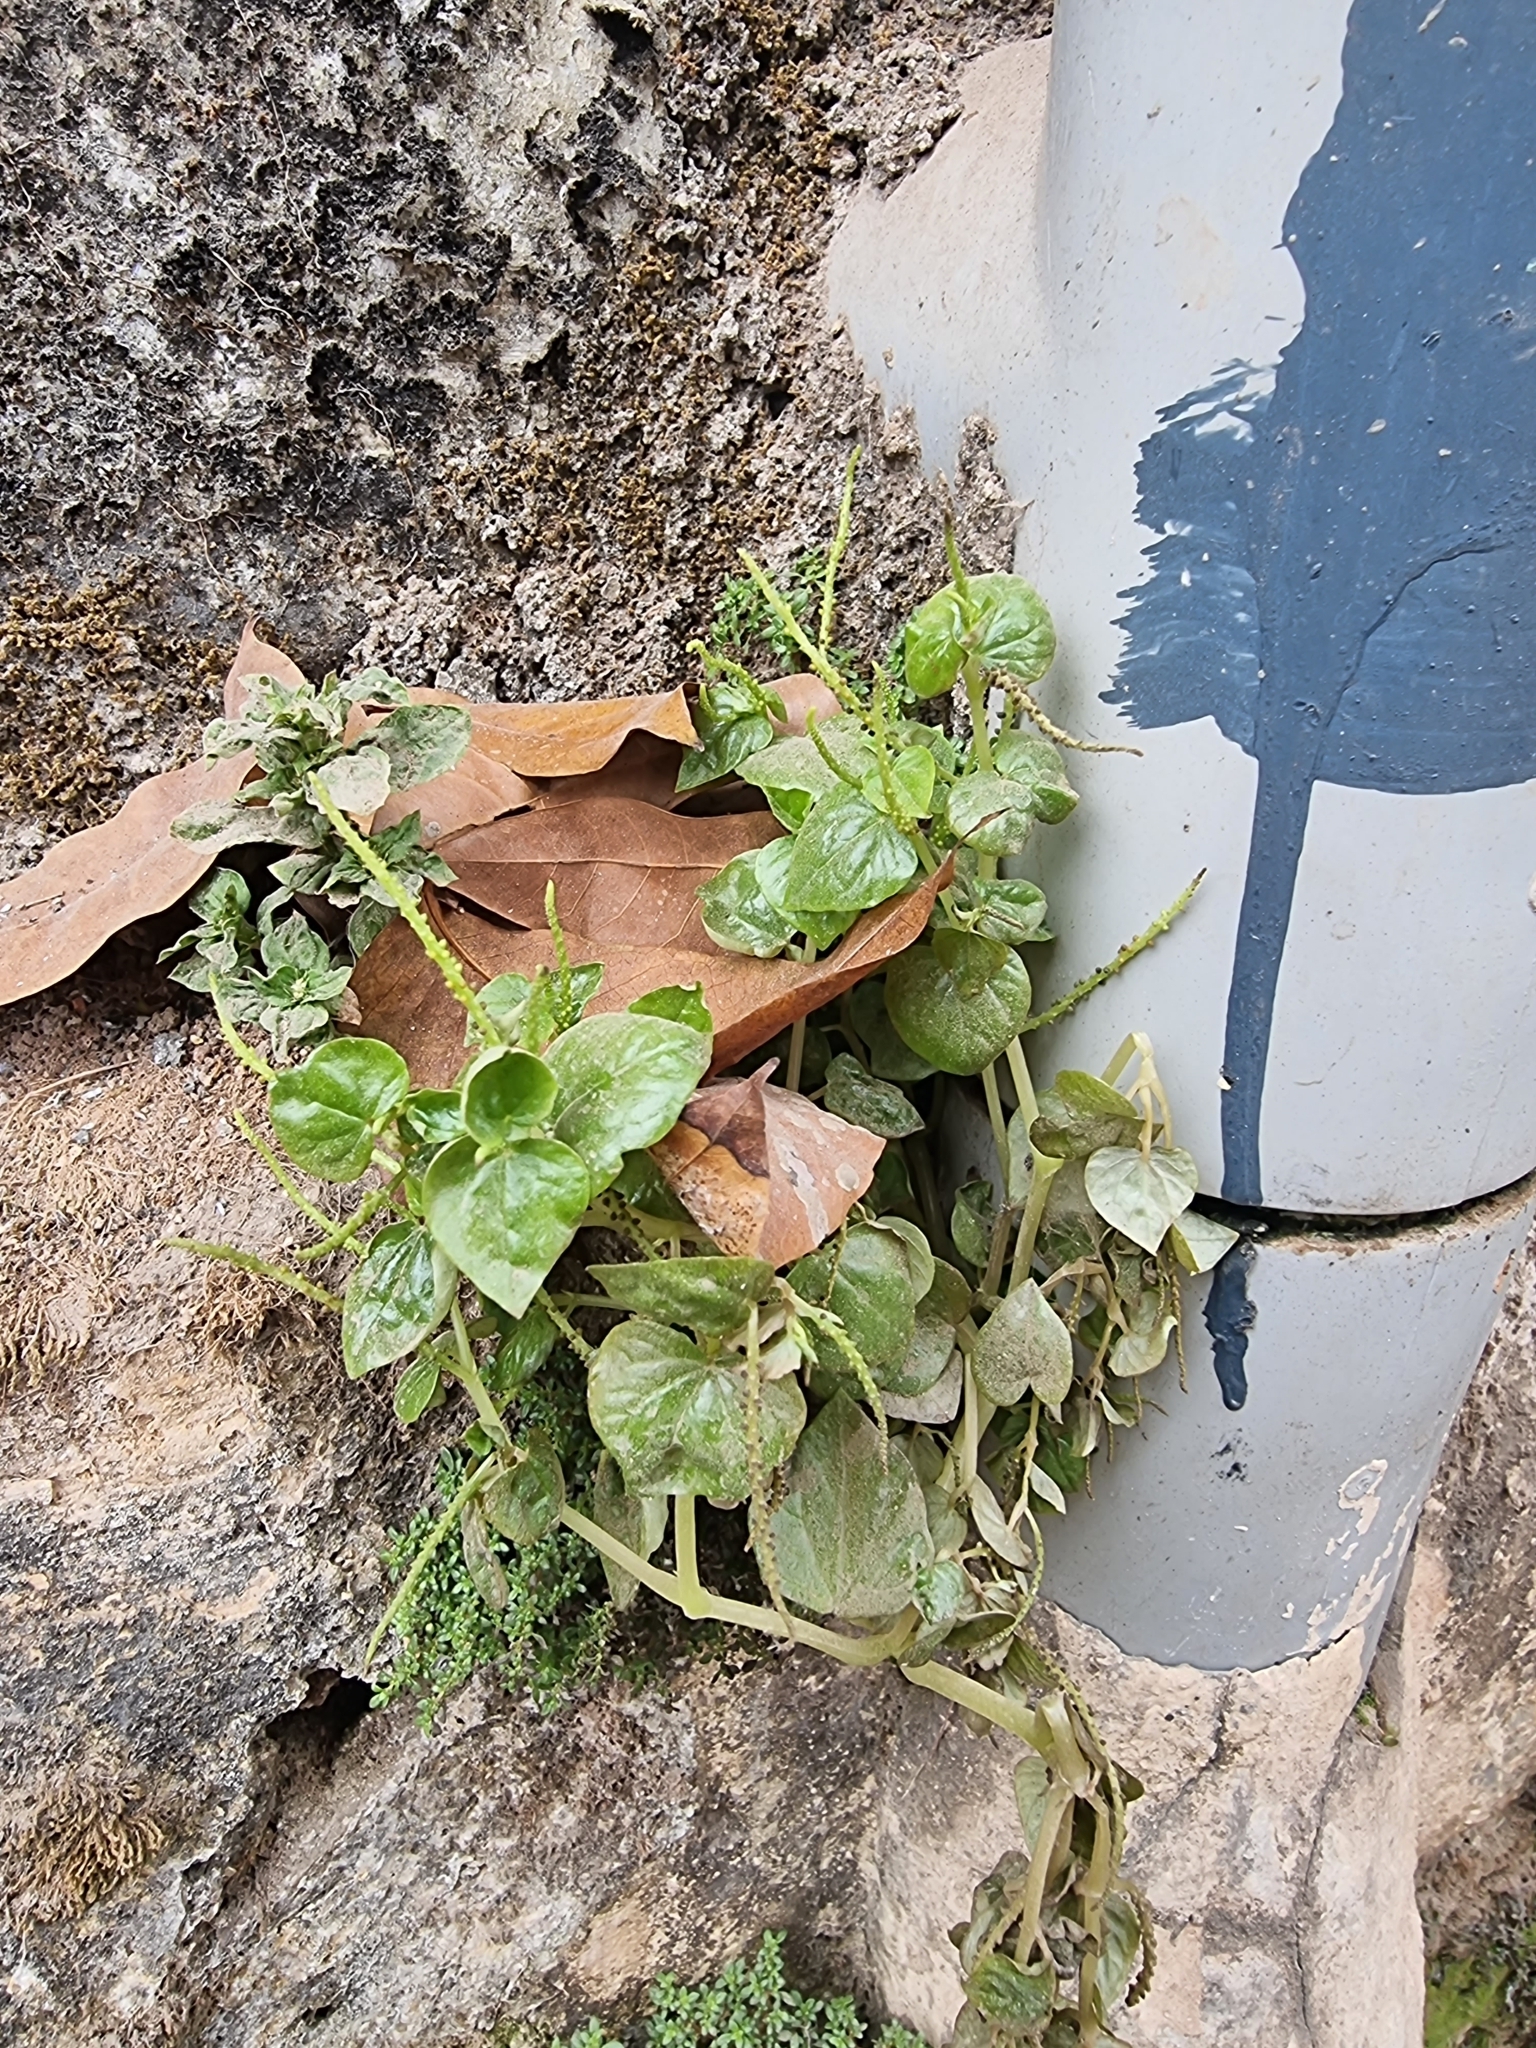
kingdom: Plantae
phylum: Tracheophyta
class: Magnoliopsida
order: Piperales
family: Piperaceae
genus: Peperomia
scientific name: Peperomia pellucida
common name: Man to man
